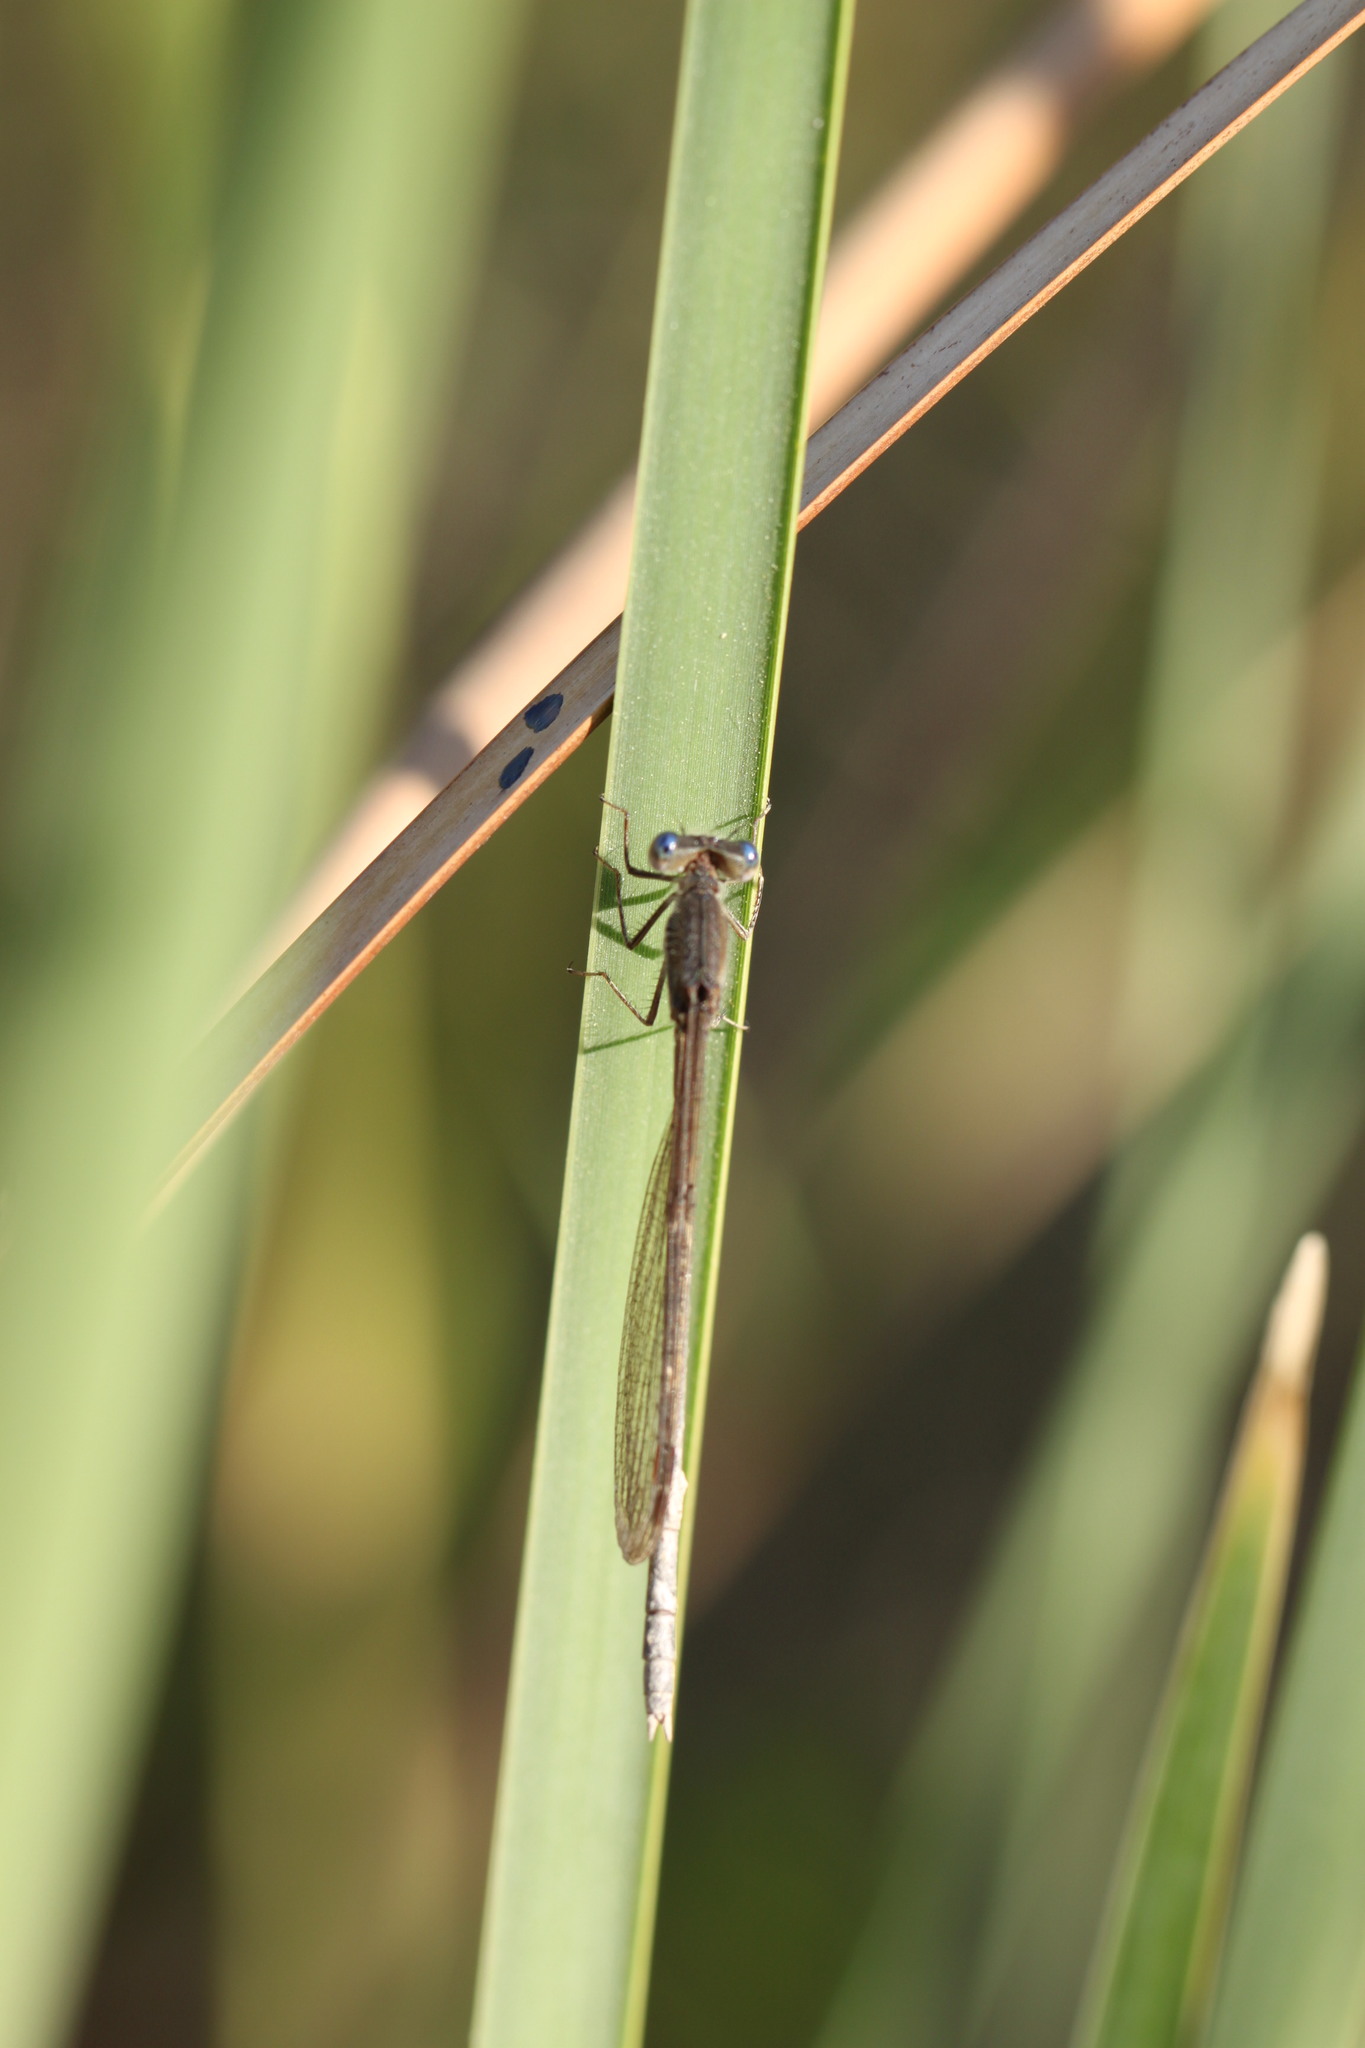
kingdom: Animalia
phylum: Arthropoda
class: Insecta
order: Odonata
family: Lestidae
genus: Sympecma
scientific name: Sympecma fusca
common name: Common winter damsel
